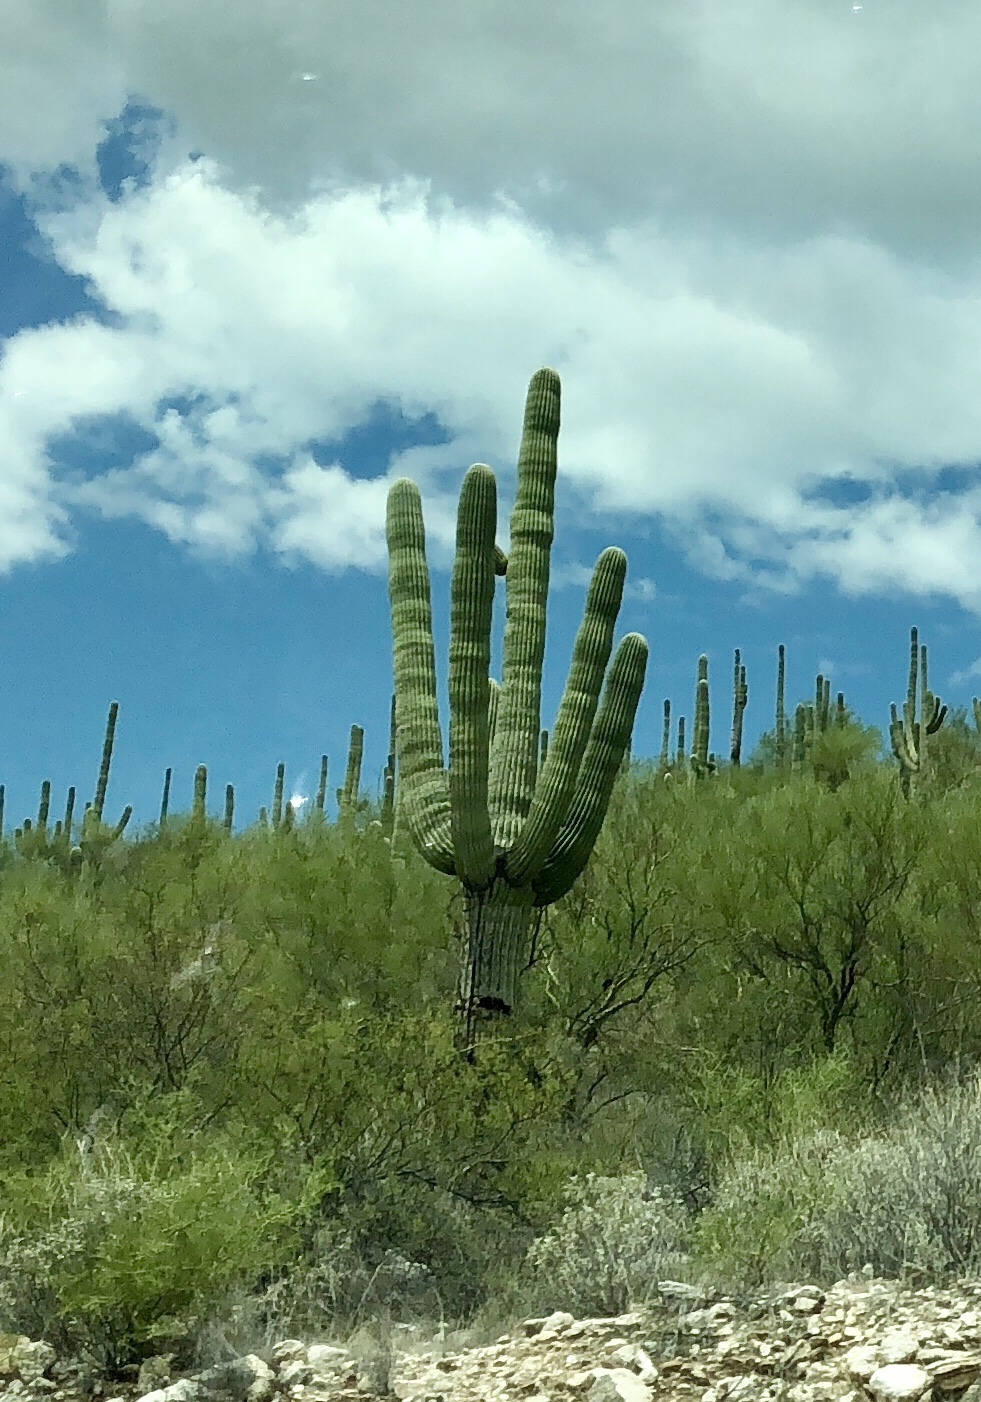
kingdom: Plantae
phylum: Tracheophyta
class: Magnoliopsida
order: Caryophyllales
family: Cactaceae
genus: Carnegiea
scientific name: Carnegiea gigantea
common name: Saguaro
